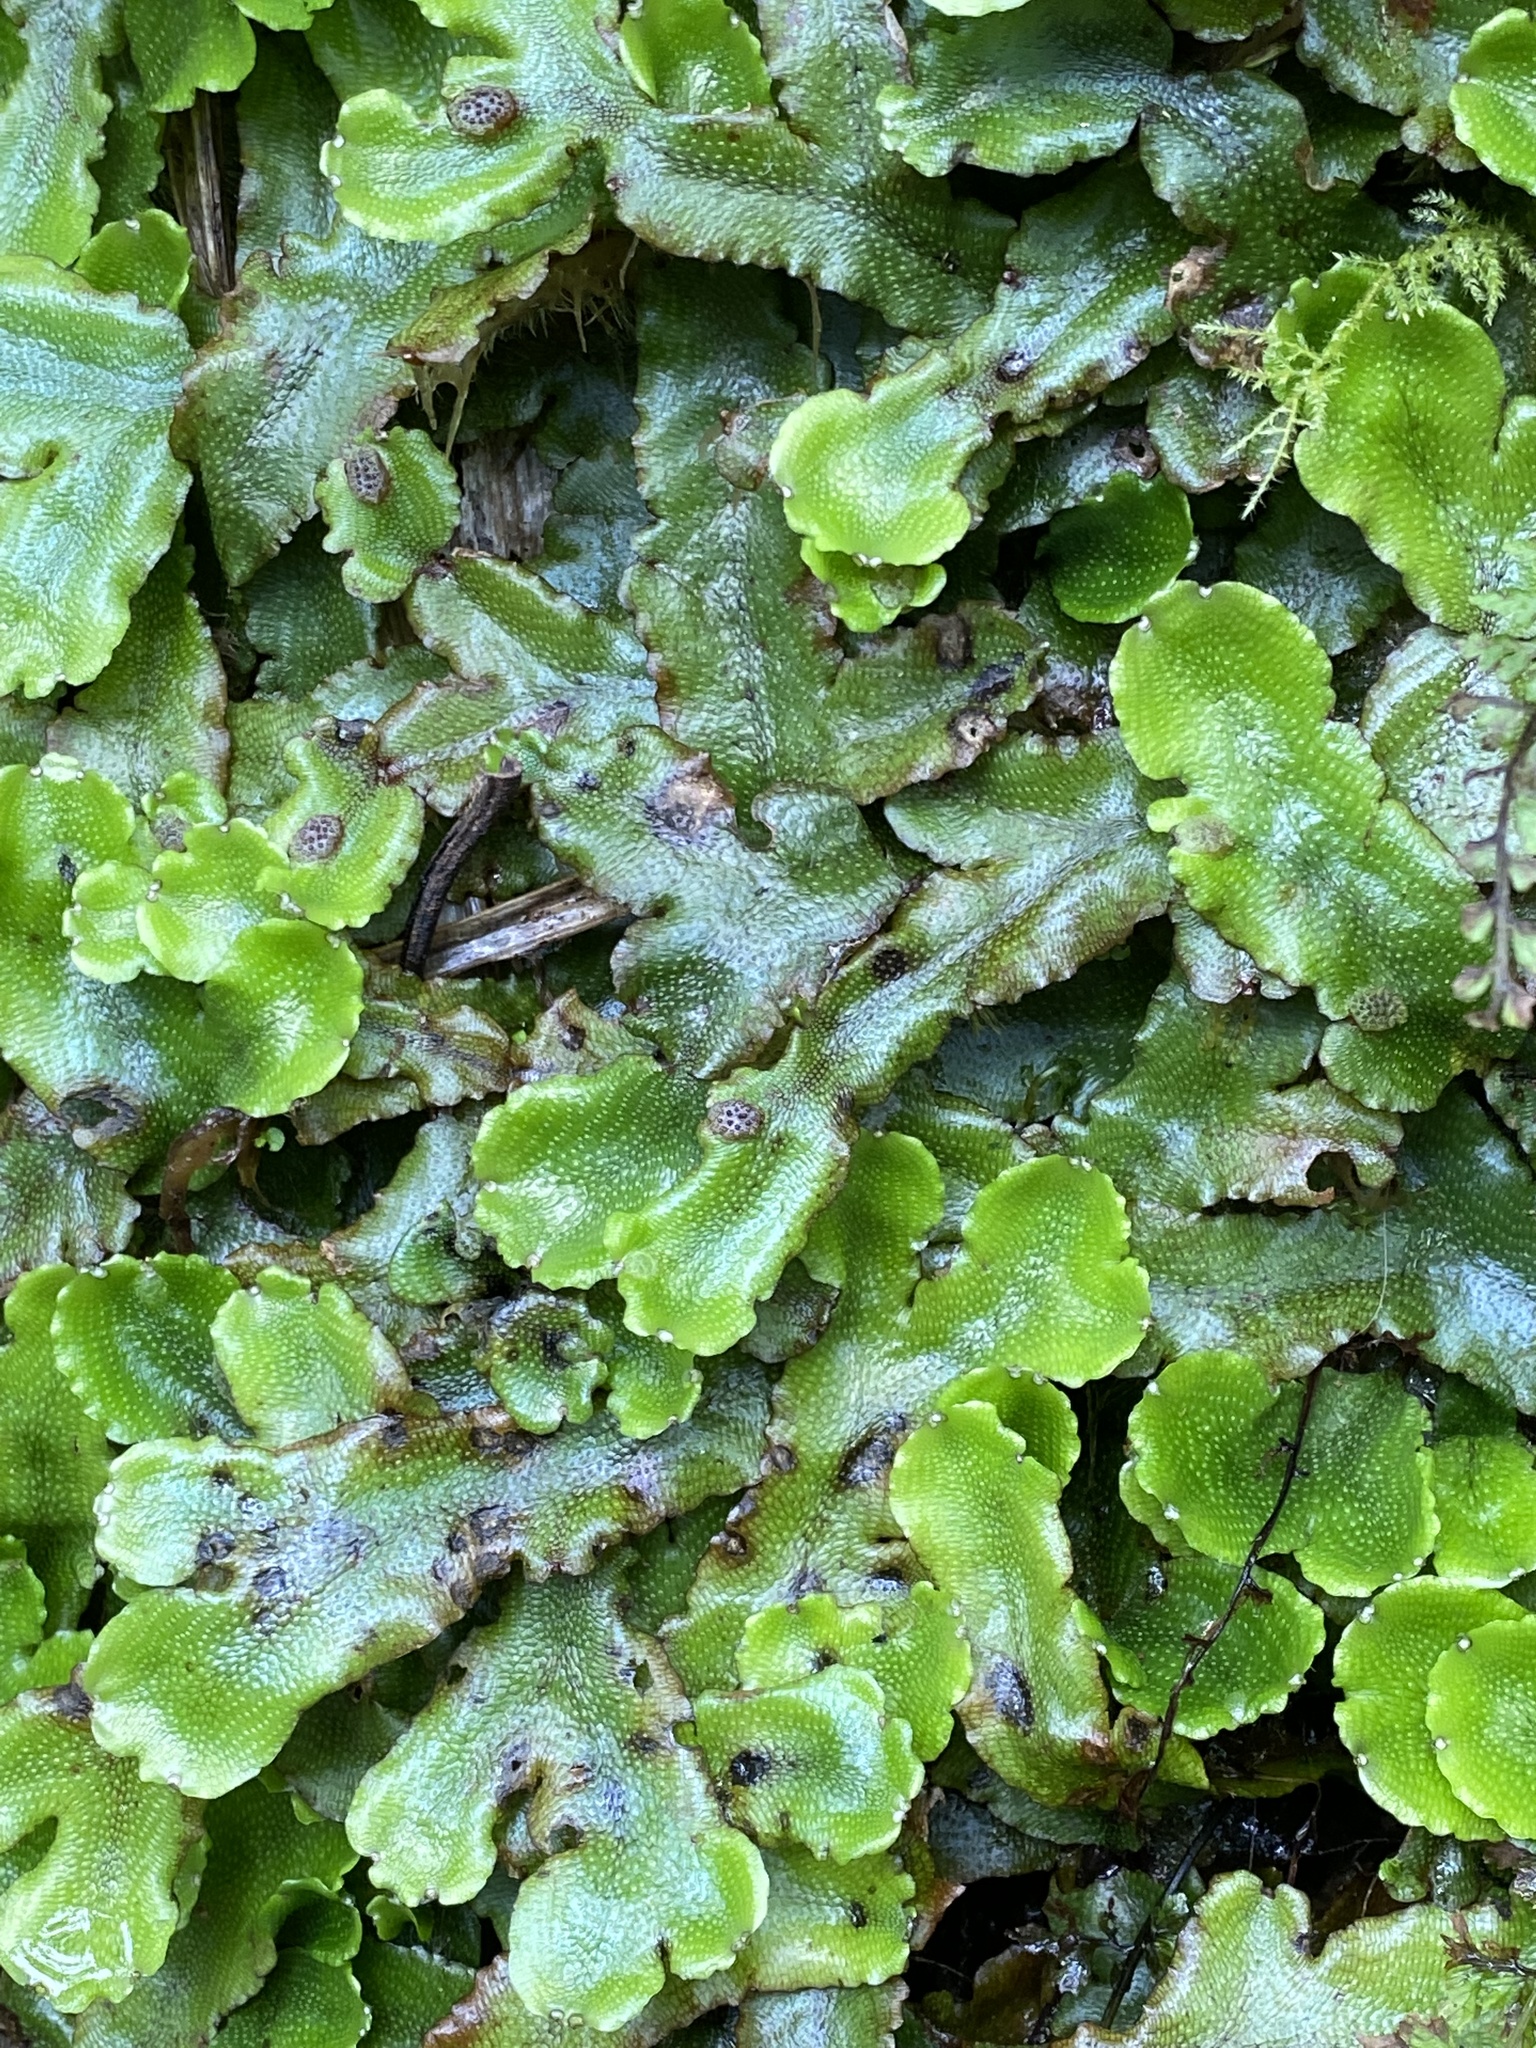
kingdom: Plantae
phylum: Marchantiophyta
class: Marchantiopsida
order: Marchantiales
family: Conocephalaceae
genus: Conocephalum
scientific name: Conocephalum conicum
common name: Great scented liverwort
